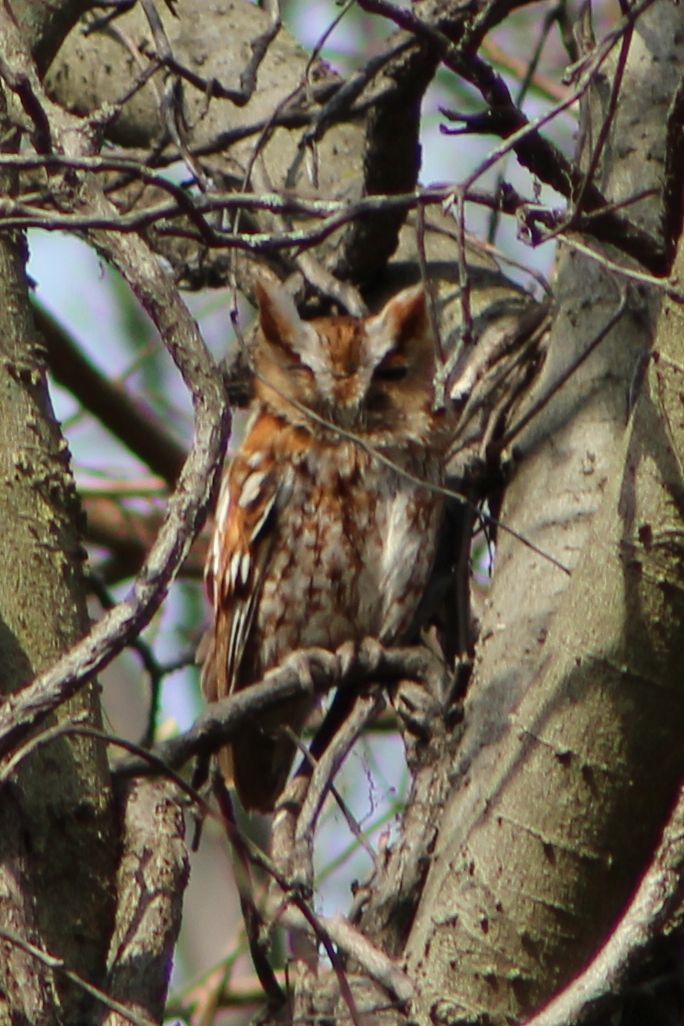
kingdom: Animalia
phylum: Chordata
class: Aves
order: Strigiformes
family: Strigidae
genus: Megascops
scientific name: Megascops asio
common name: Eastern screech-owl
